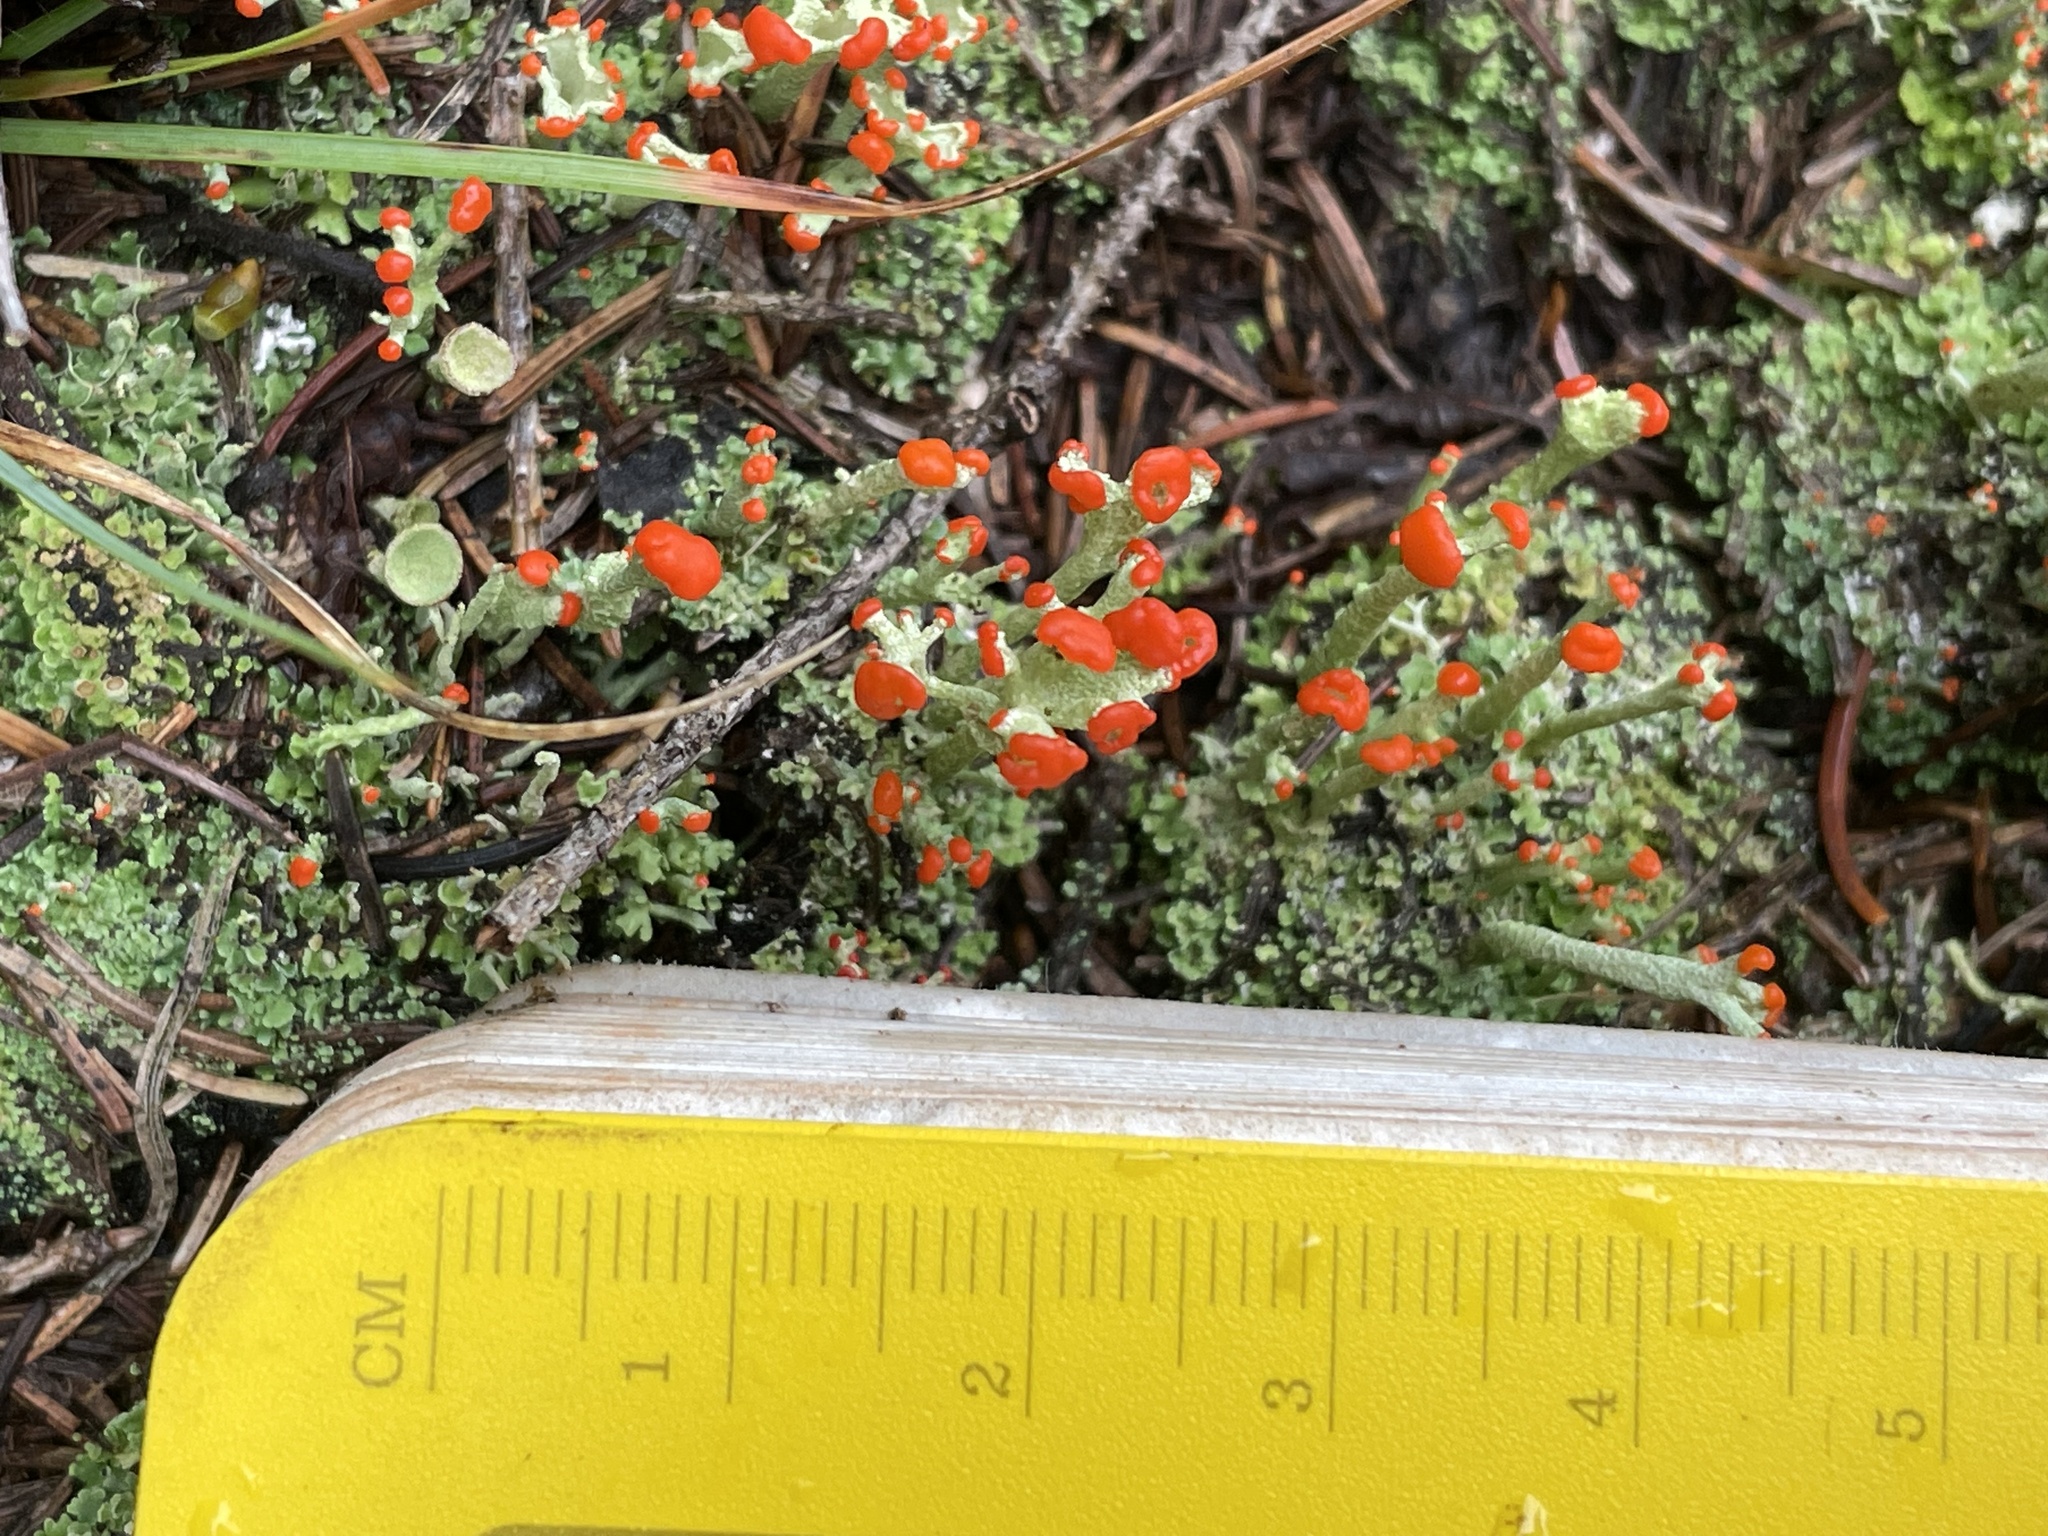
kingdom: Fungi
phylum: Ascomycota
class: Lecanoromycetes
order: Lecanorales
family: Cladoniaceae
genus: Cladonia
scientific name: Cladonia cristatella
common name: British soldier lichen
